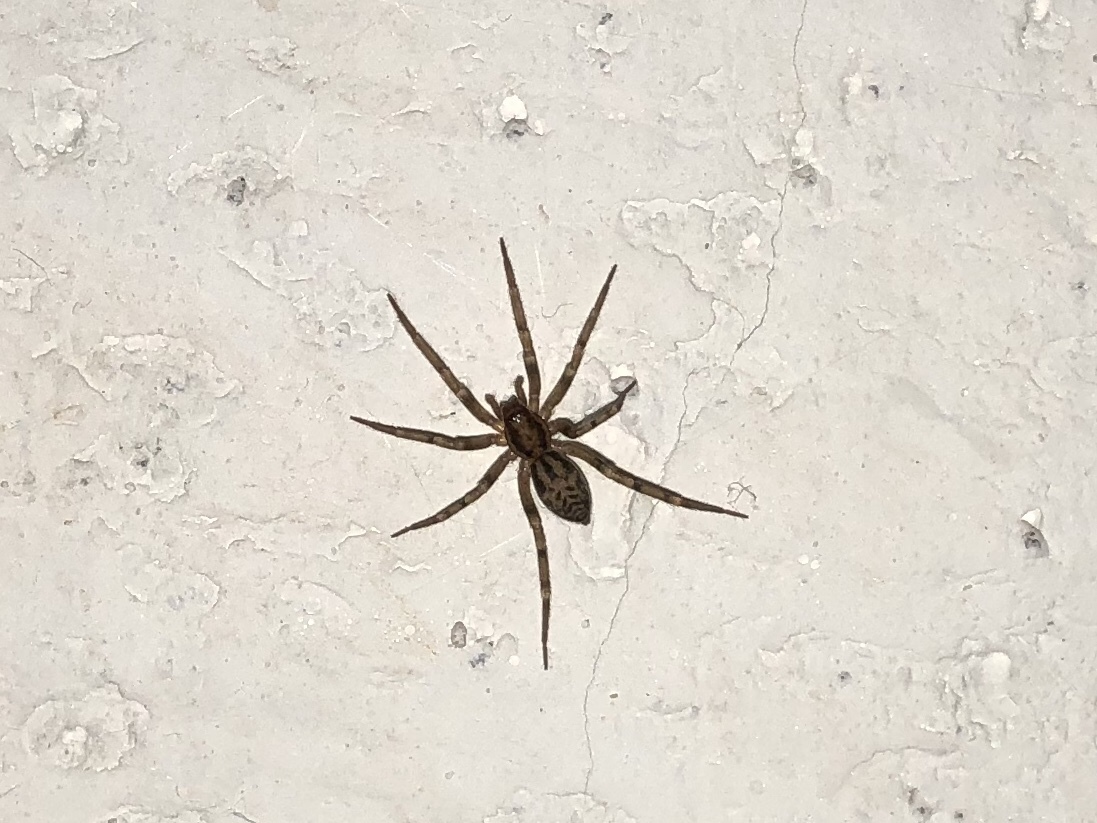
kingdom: Animalia
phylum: Arthropoda
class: Arachnida
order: Araneae
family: Liocranidae
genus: Liocranum
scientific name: Liocranum rupicola
